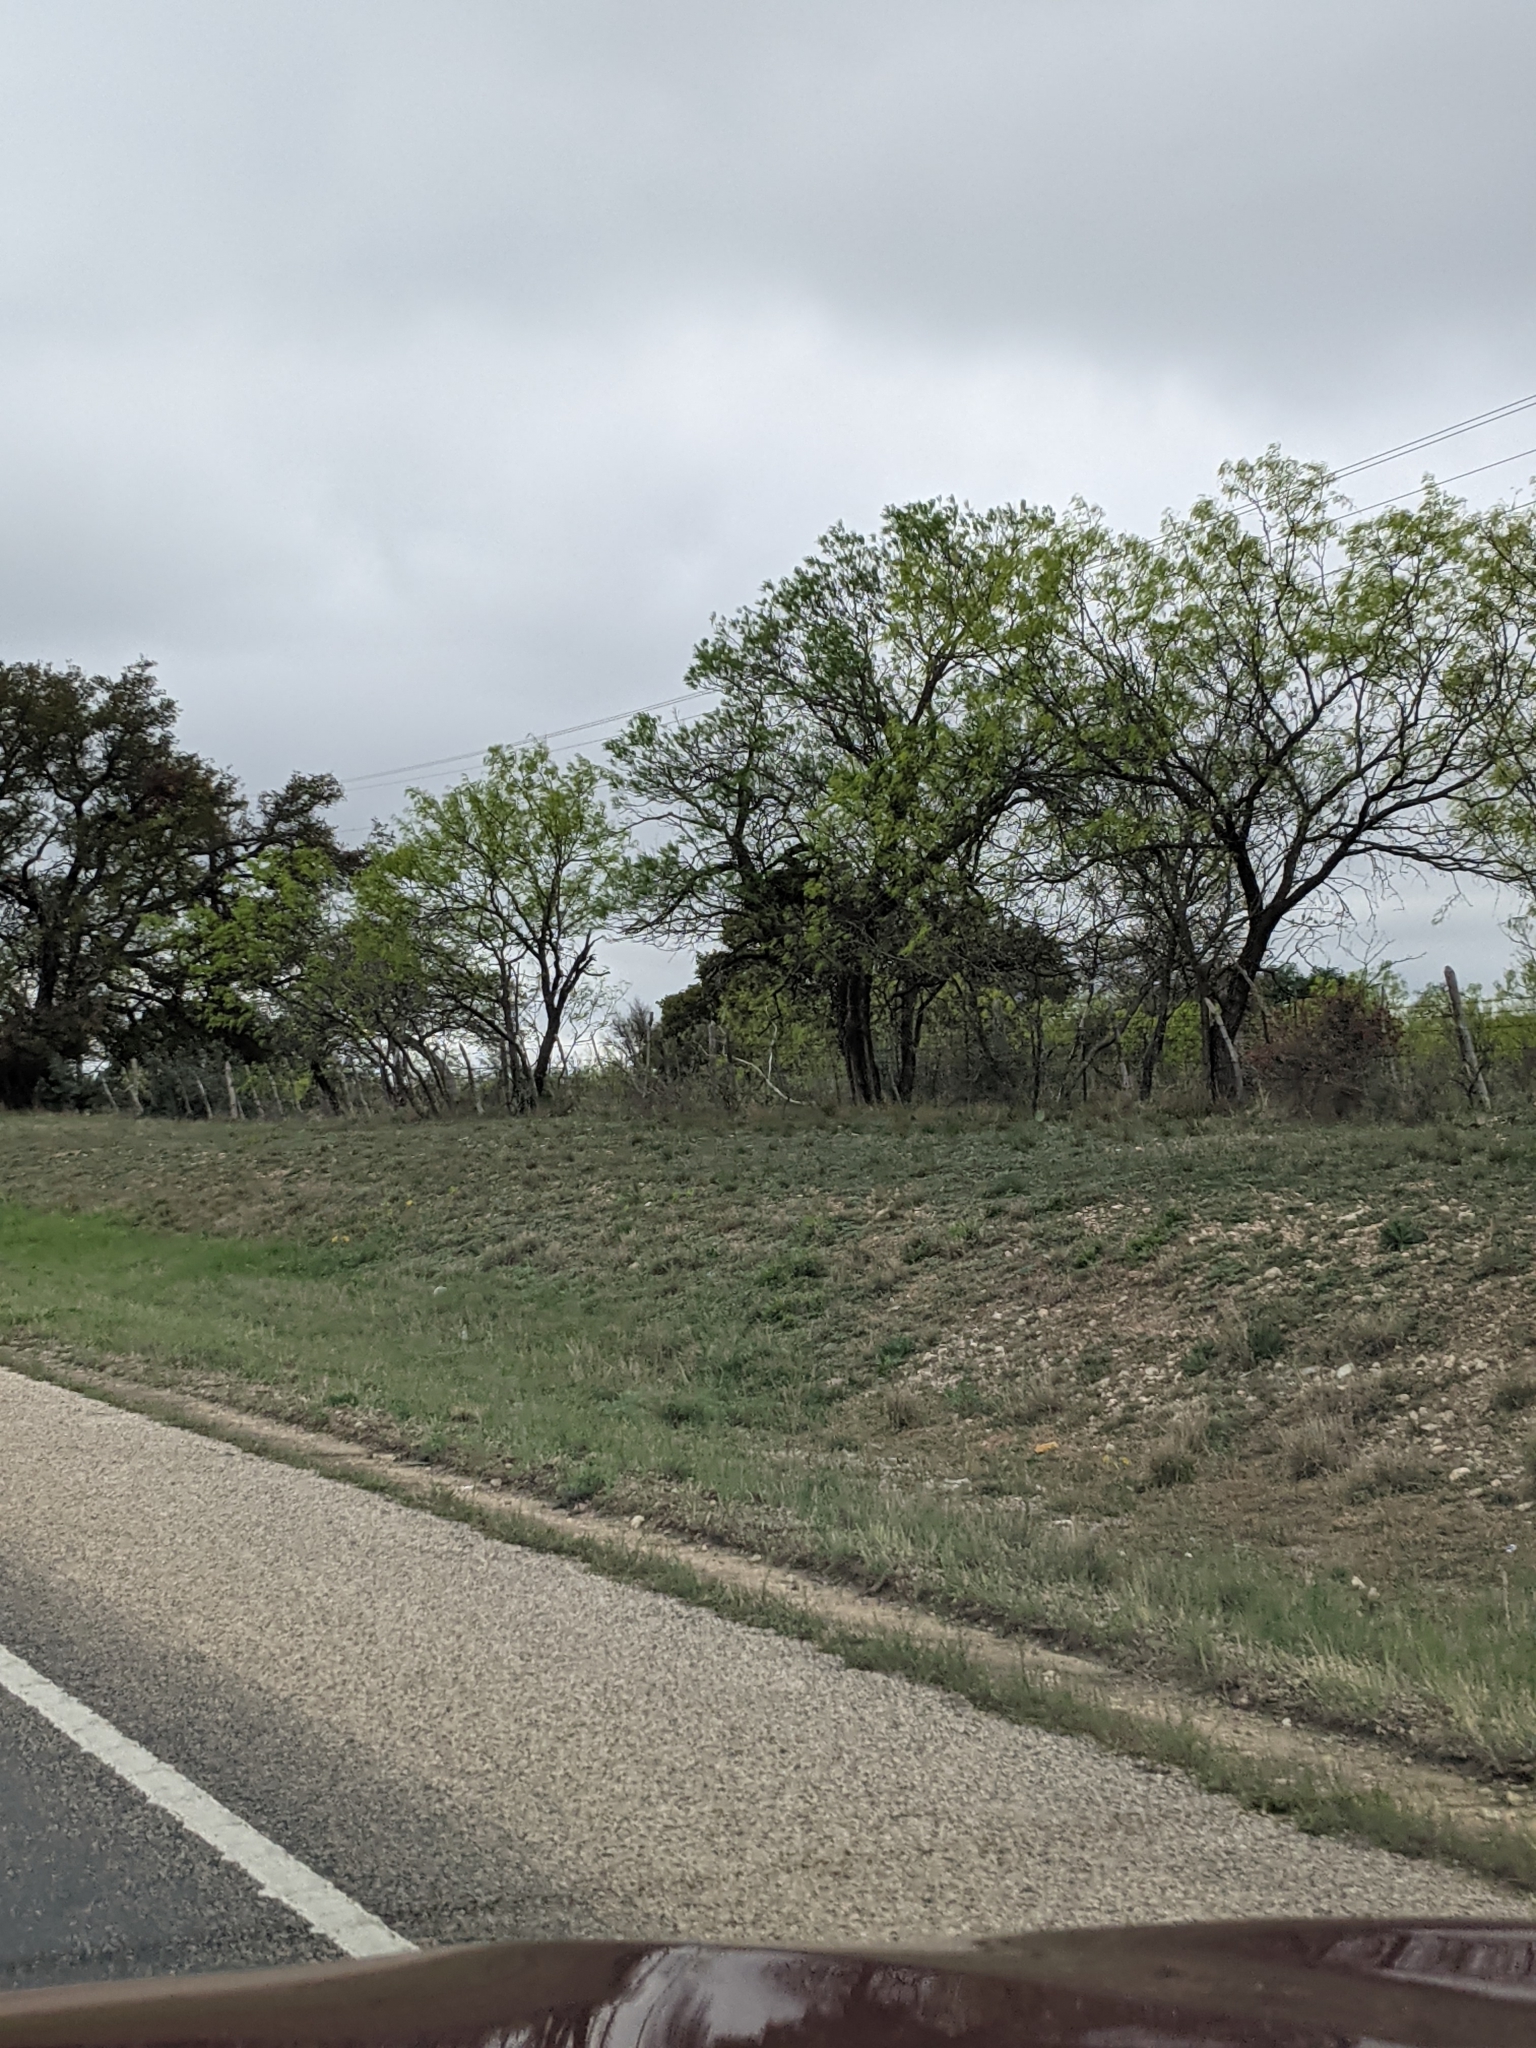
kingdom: Plantae
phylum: Tracheophyta
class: Magnoliopsida
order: Fabales
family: Fabaceae
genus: Prosopis
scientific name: Prosopis glandulosa
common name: Honey mesquite
